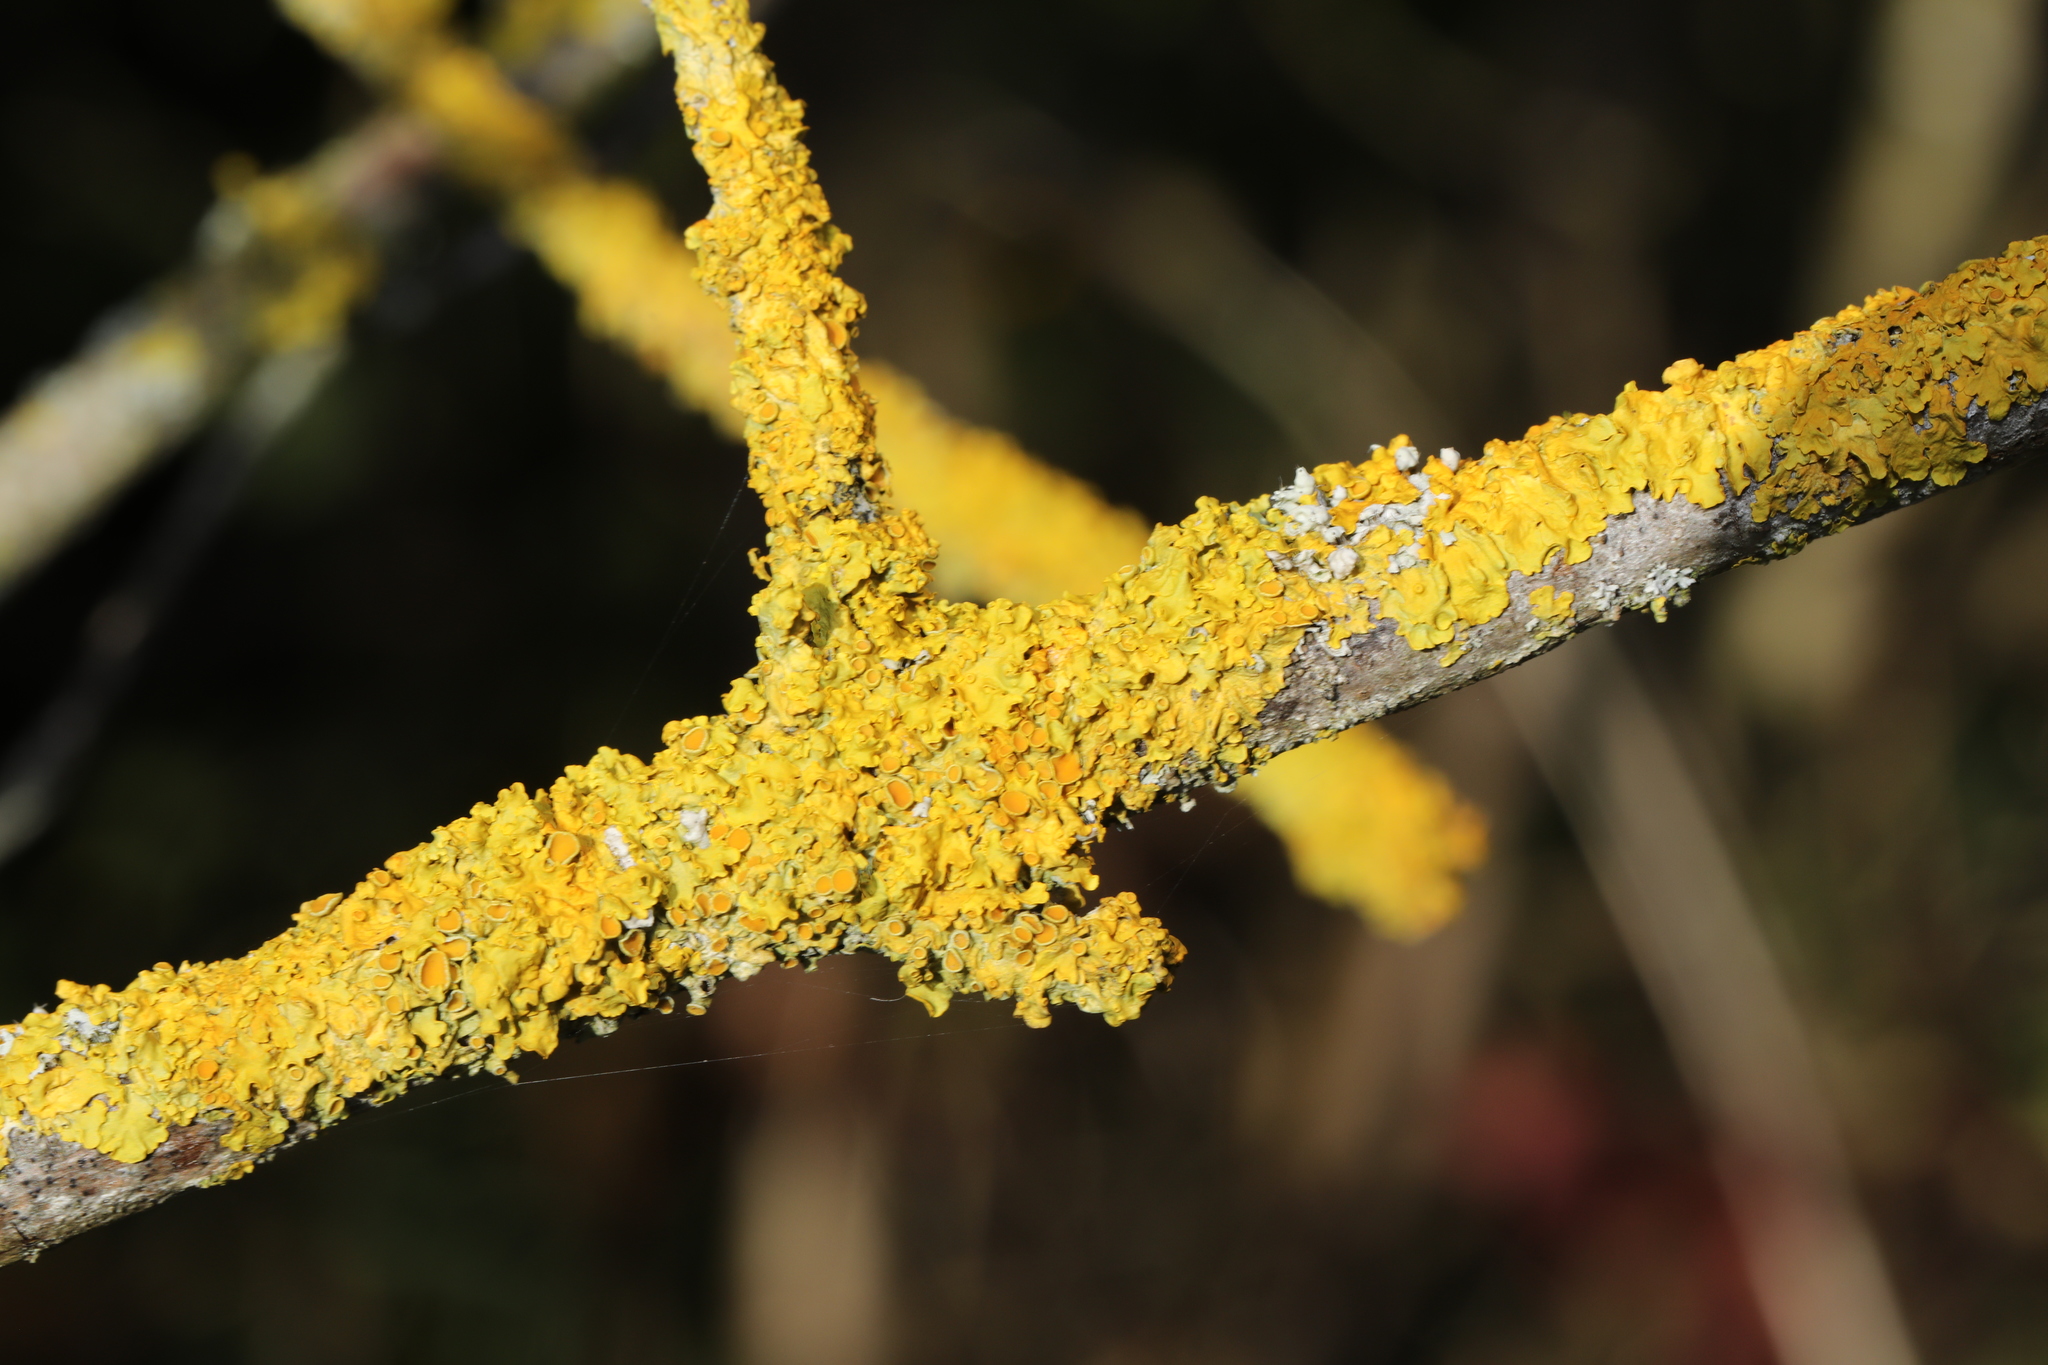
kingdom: Fungi
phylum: Ascomycota
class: Lecanoromycetes
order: Teloschistales
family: Teloschistaceae
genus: Xanthoria
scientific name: Xanthoria parietina
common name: Common orange lichen
